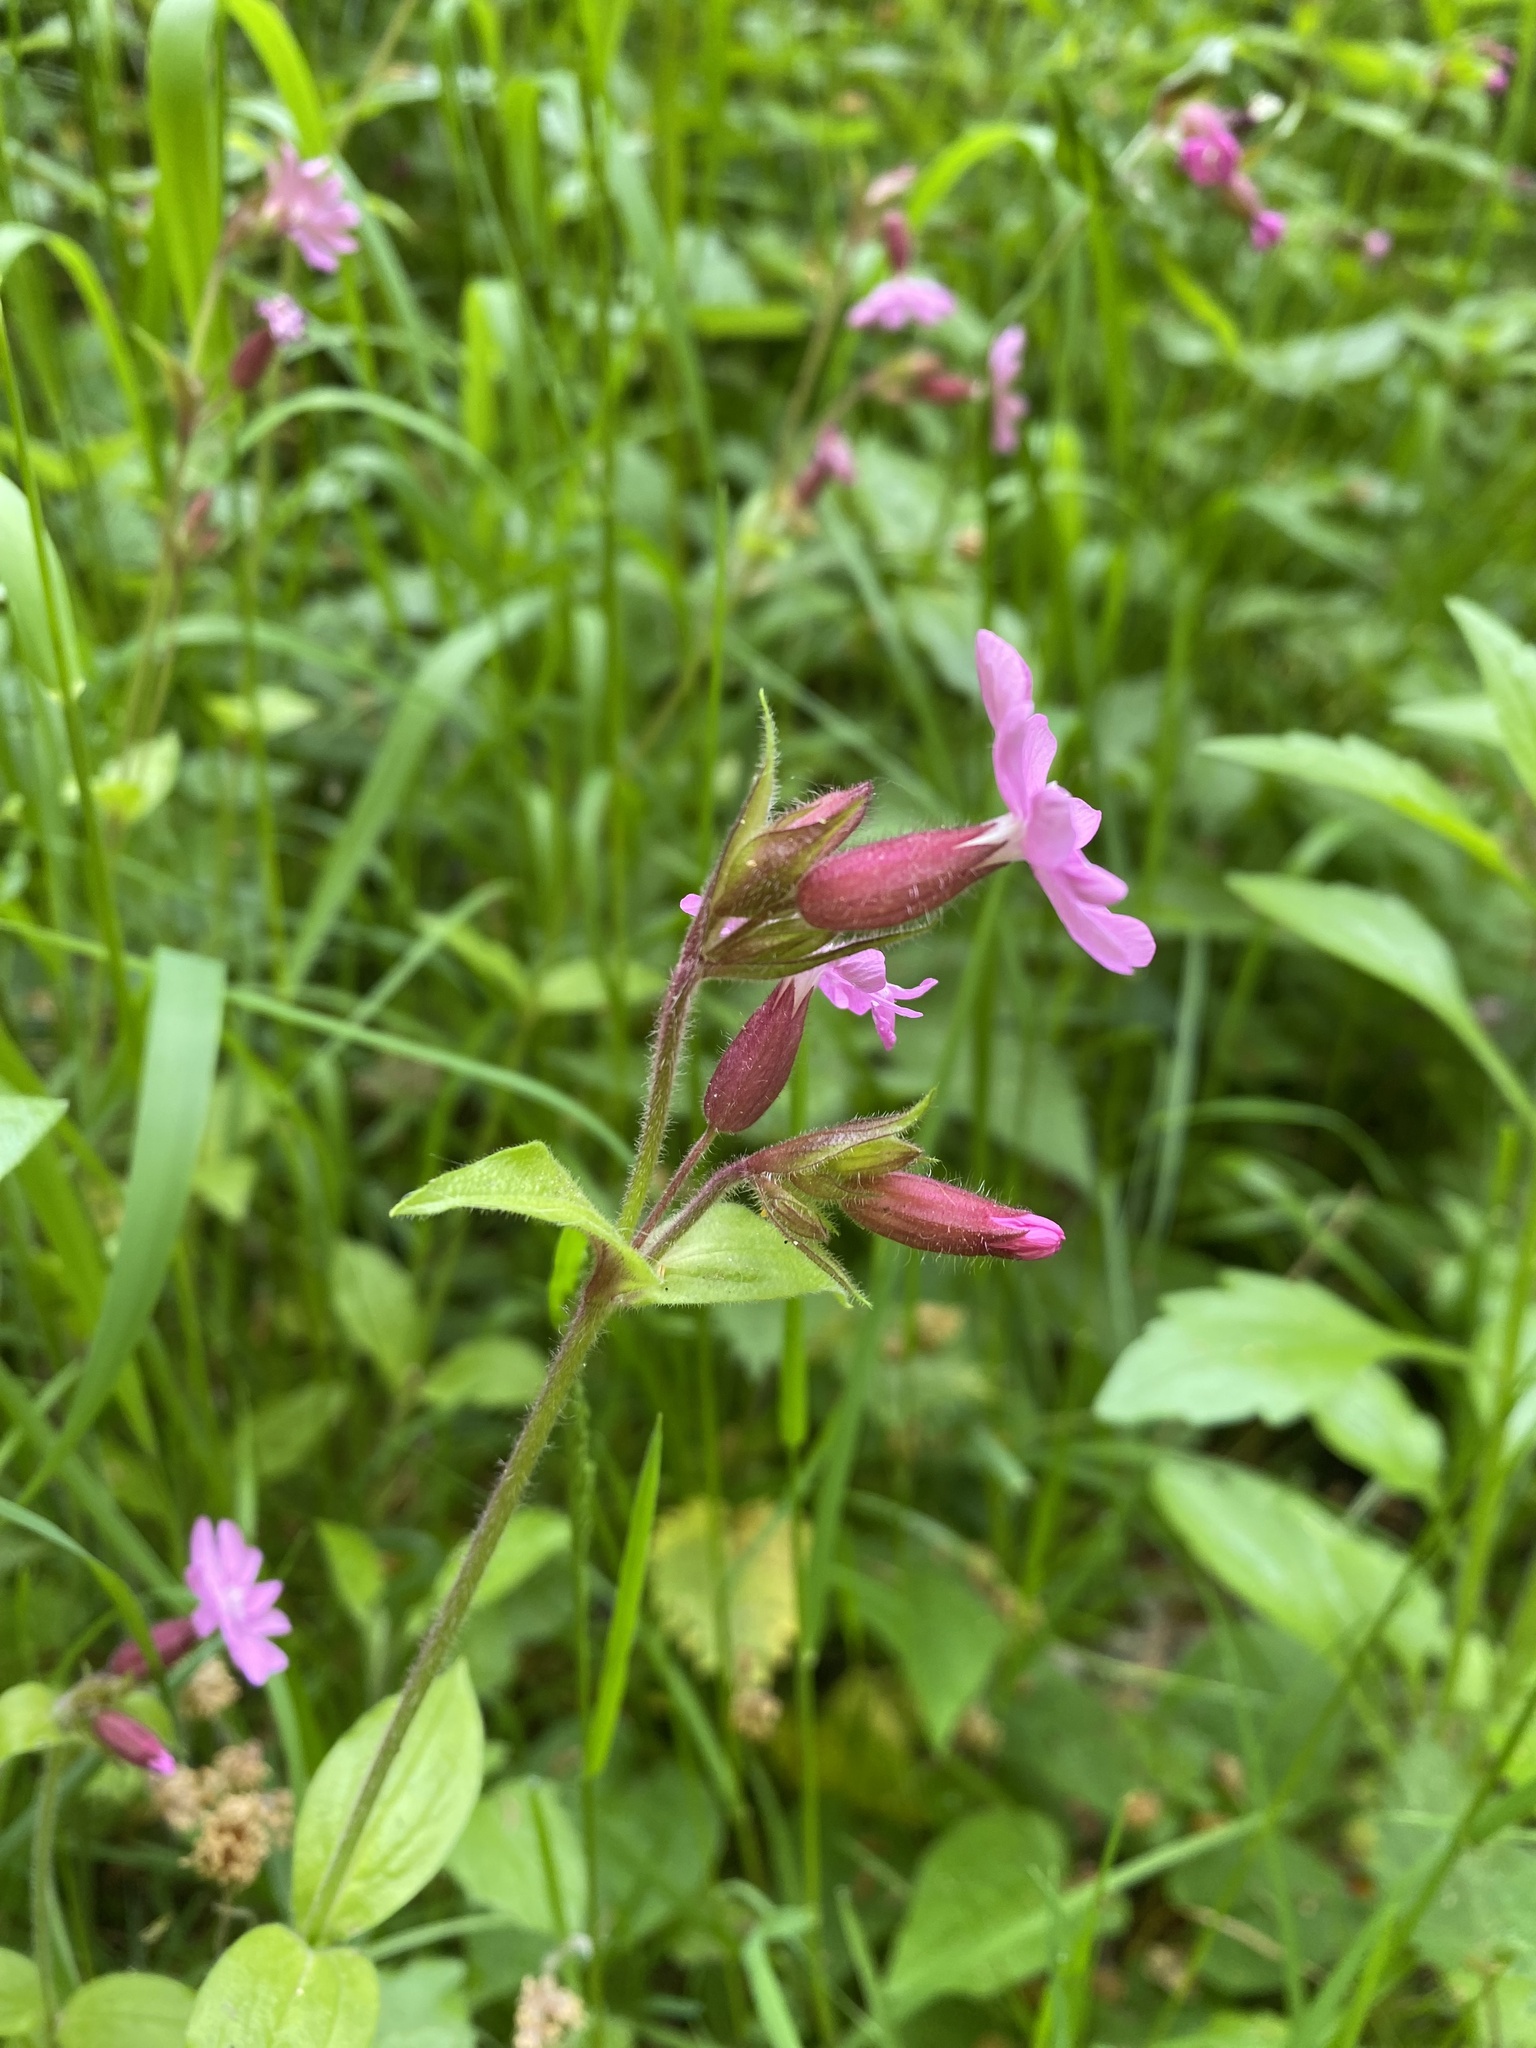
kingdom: Plantae
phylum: Tracheophyta
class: Magnoliopsida
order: Caryophyllales
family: Caryophyllaceae
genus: Silene
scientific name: Silene dioica
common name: Red campion
